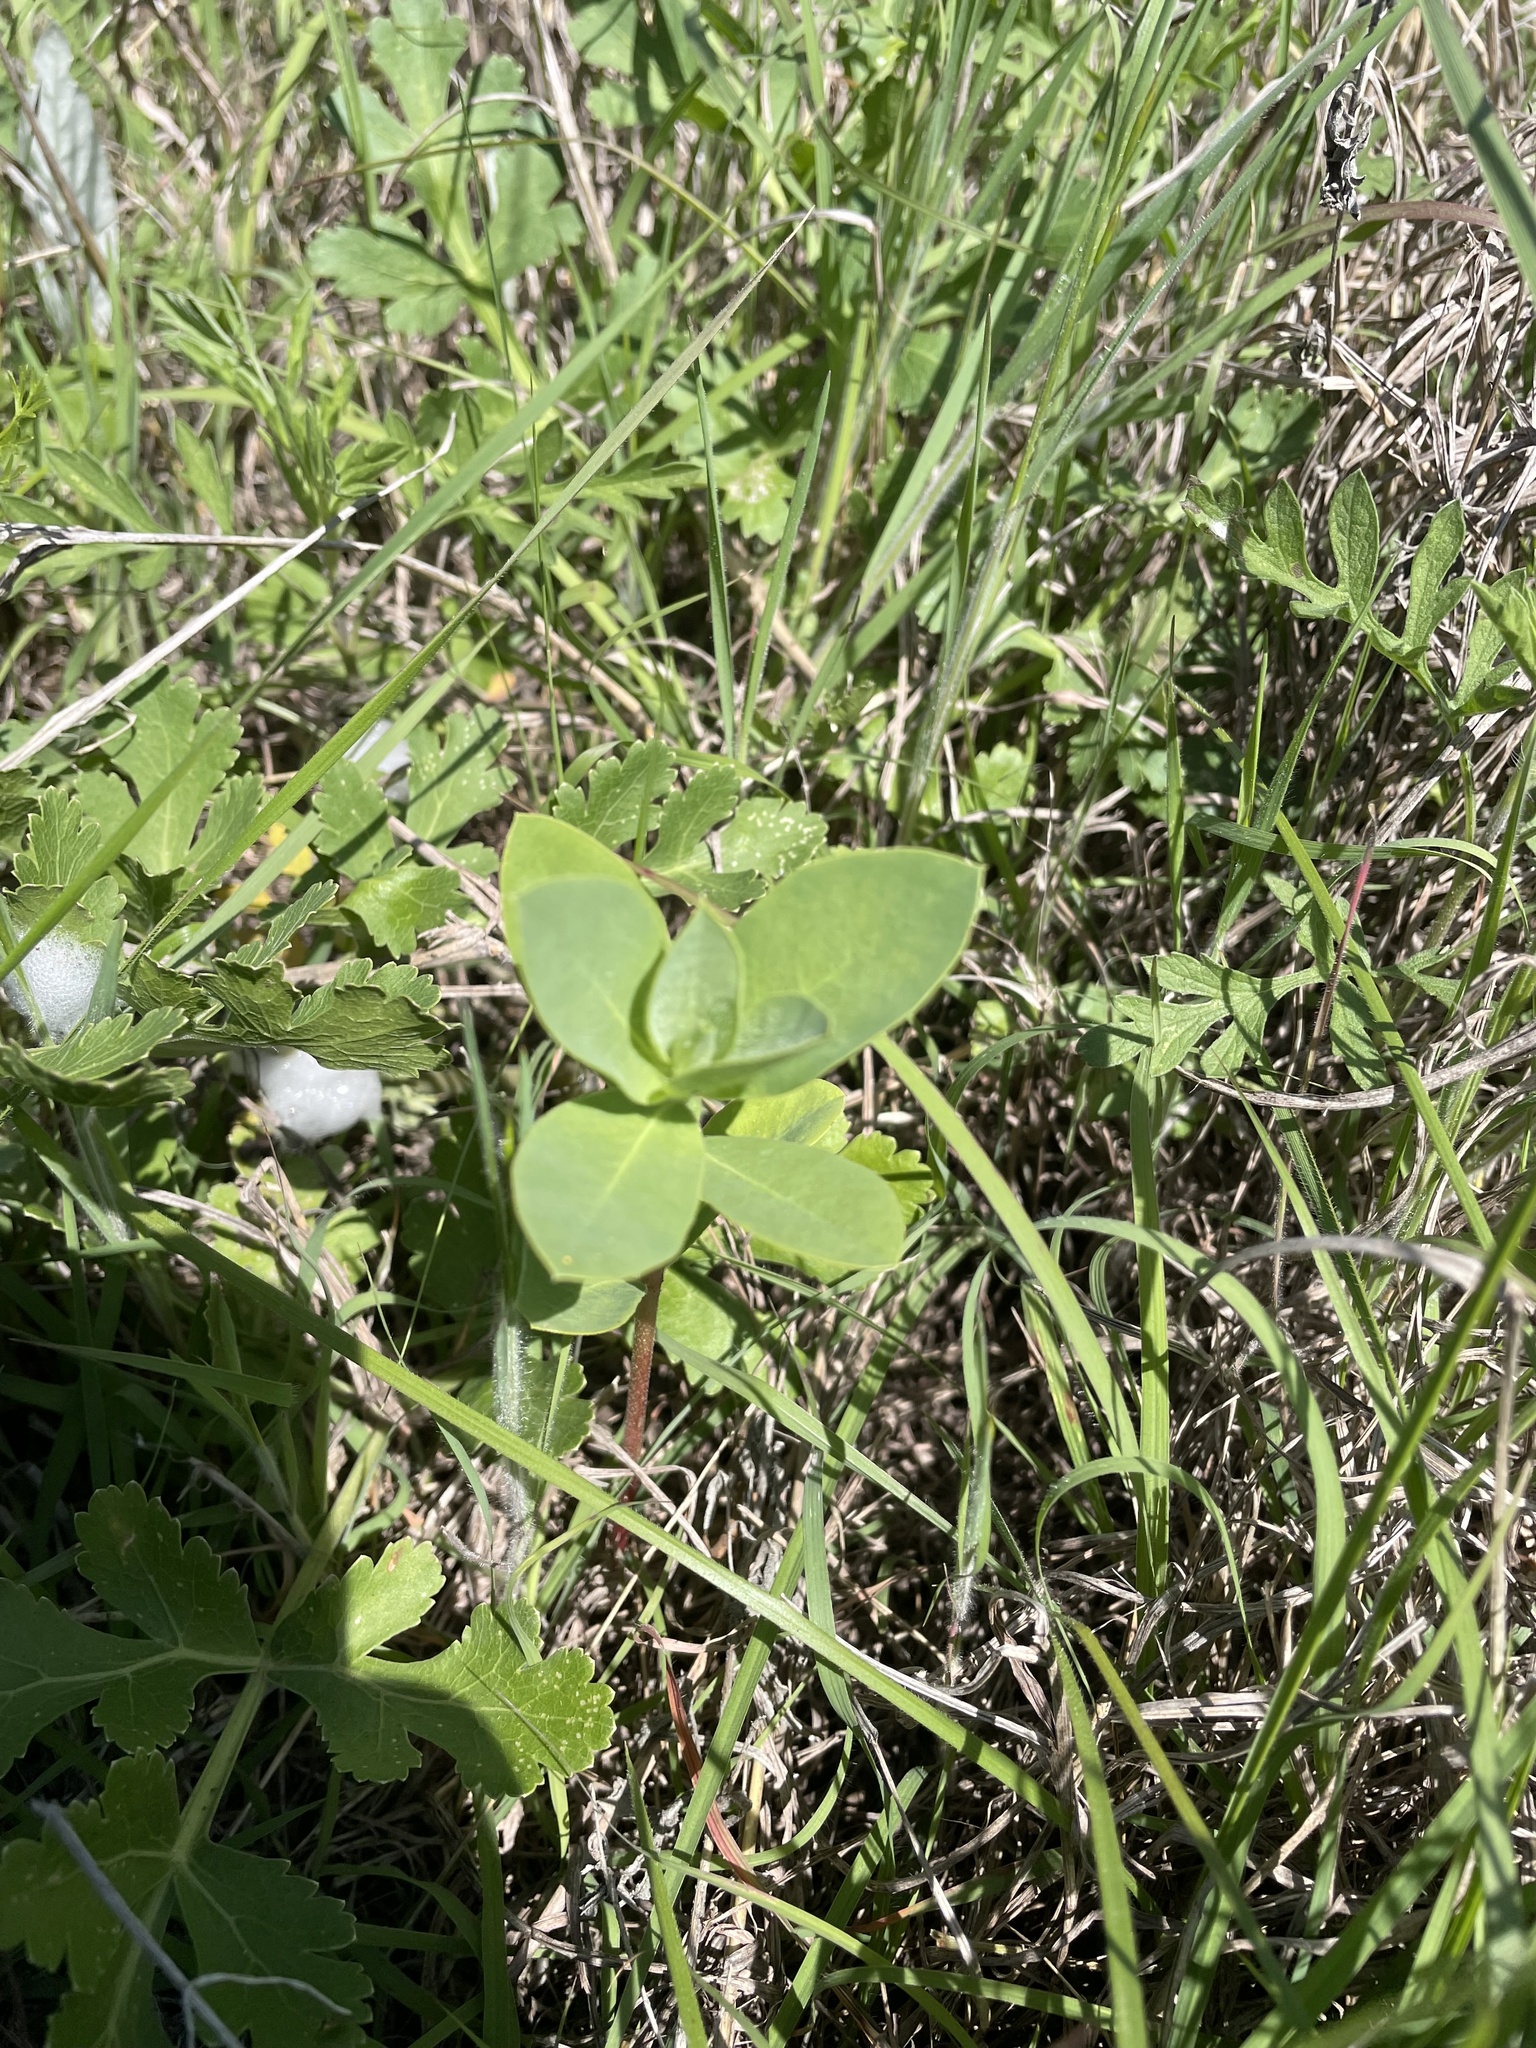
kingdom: Plantae
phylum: Tracheophyta
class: Magnoliopsida
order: Malpighiales
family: Euphorbiaceae
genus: Euphorbia
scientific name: Euphorbia bicolor
